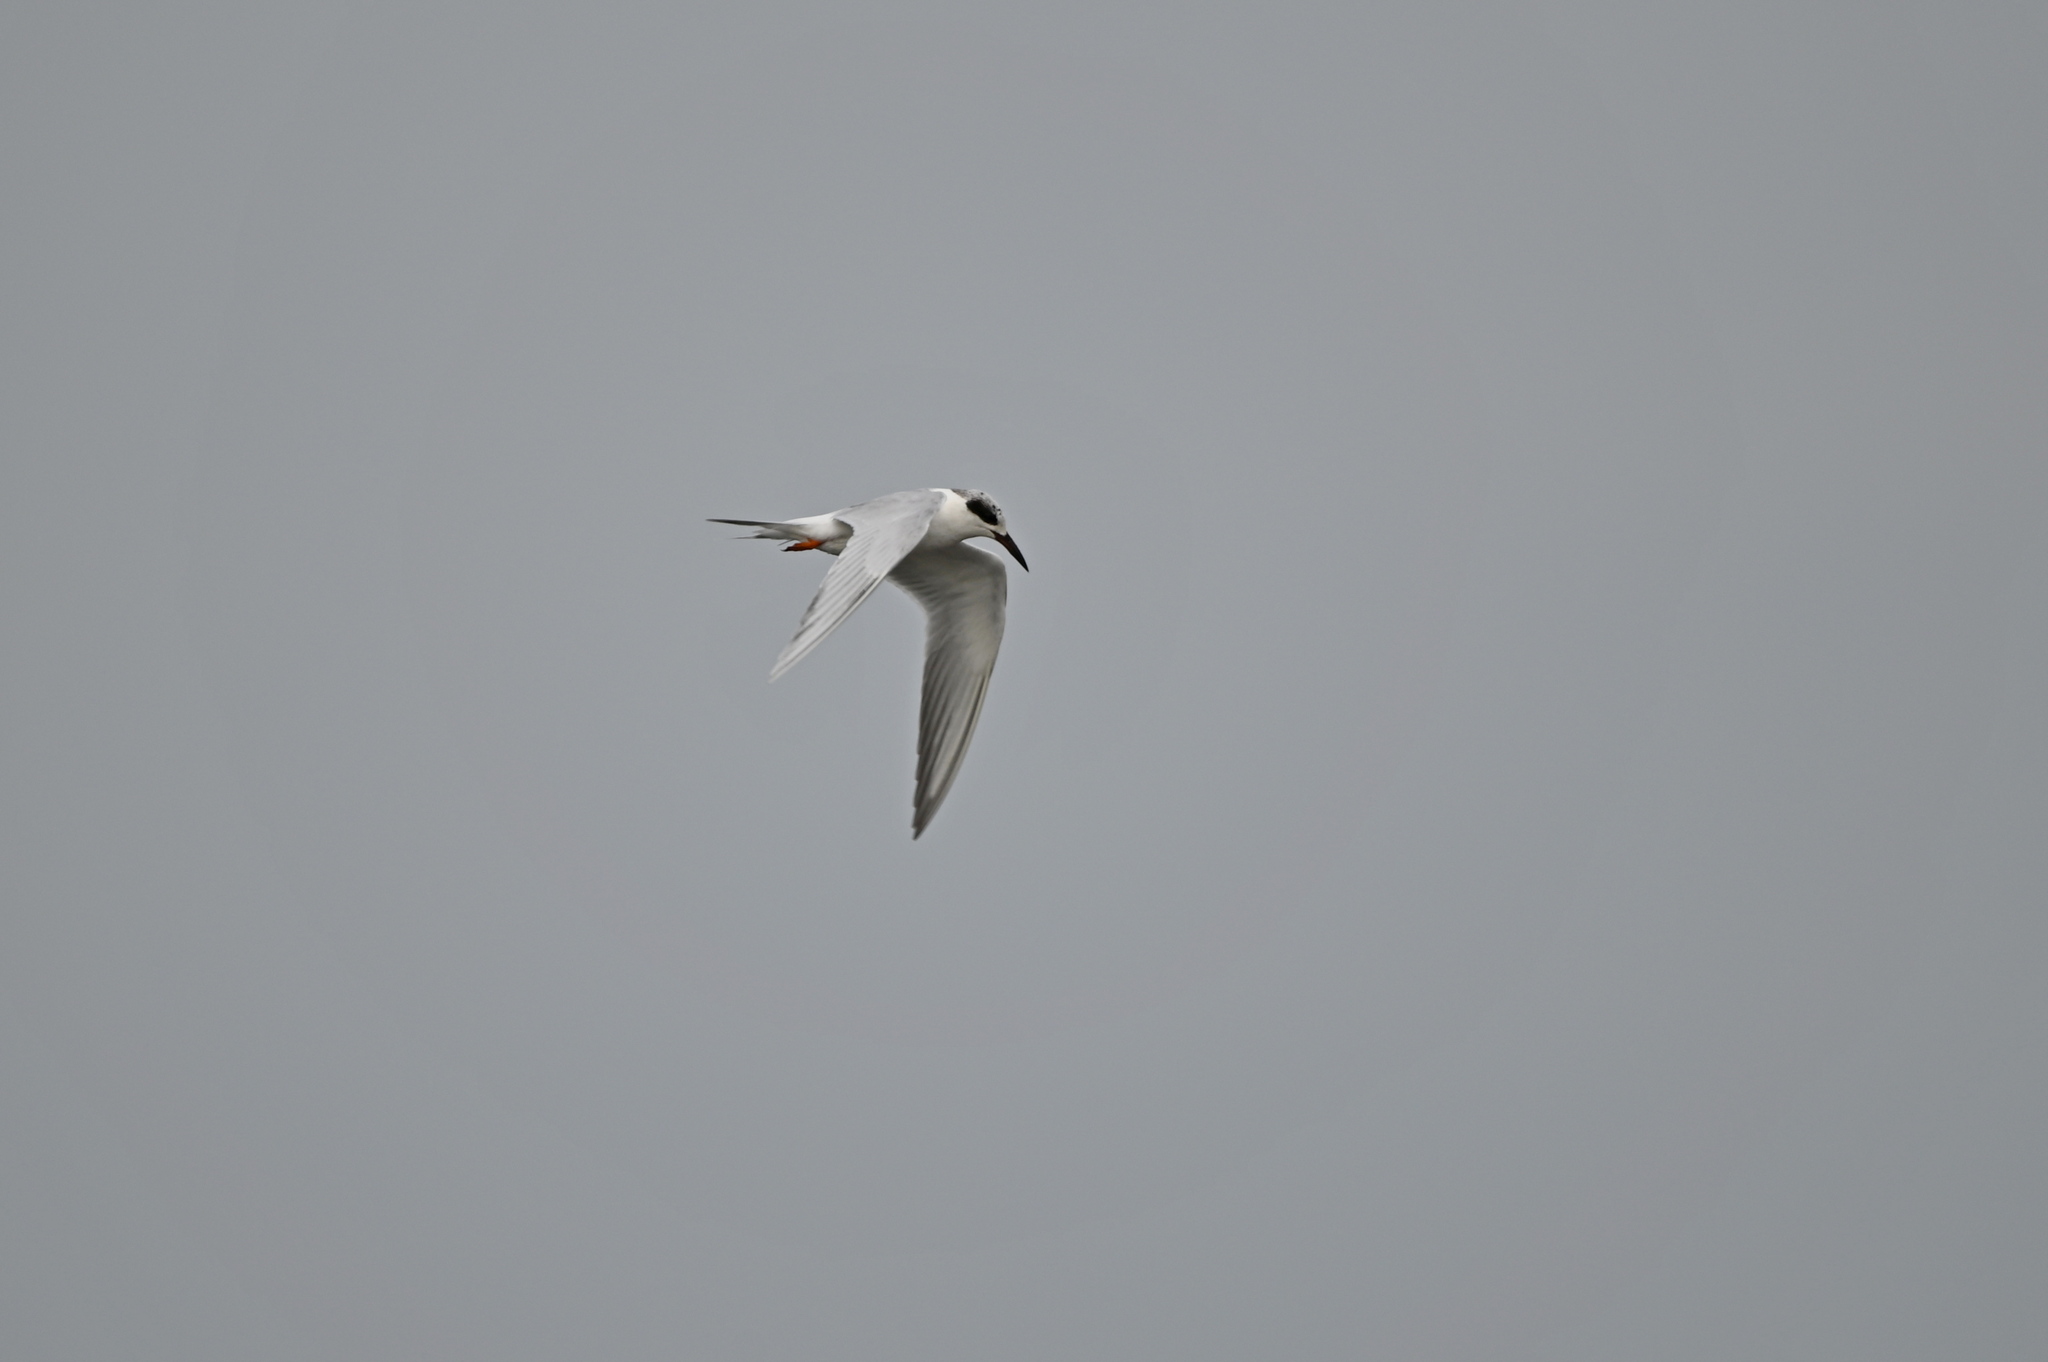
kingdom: Animalia
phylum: Chordata
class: Aves
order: Charadriiformes
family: Laridae
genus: Sterna
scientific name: Sterna forsteri
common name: Forster's tern
